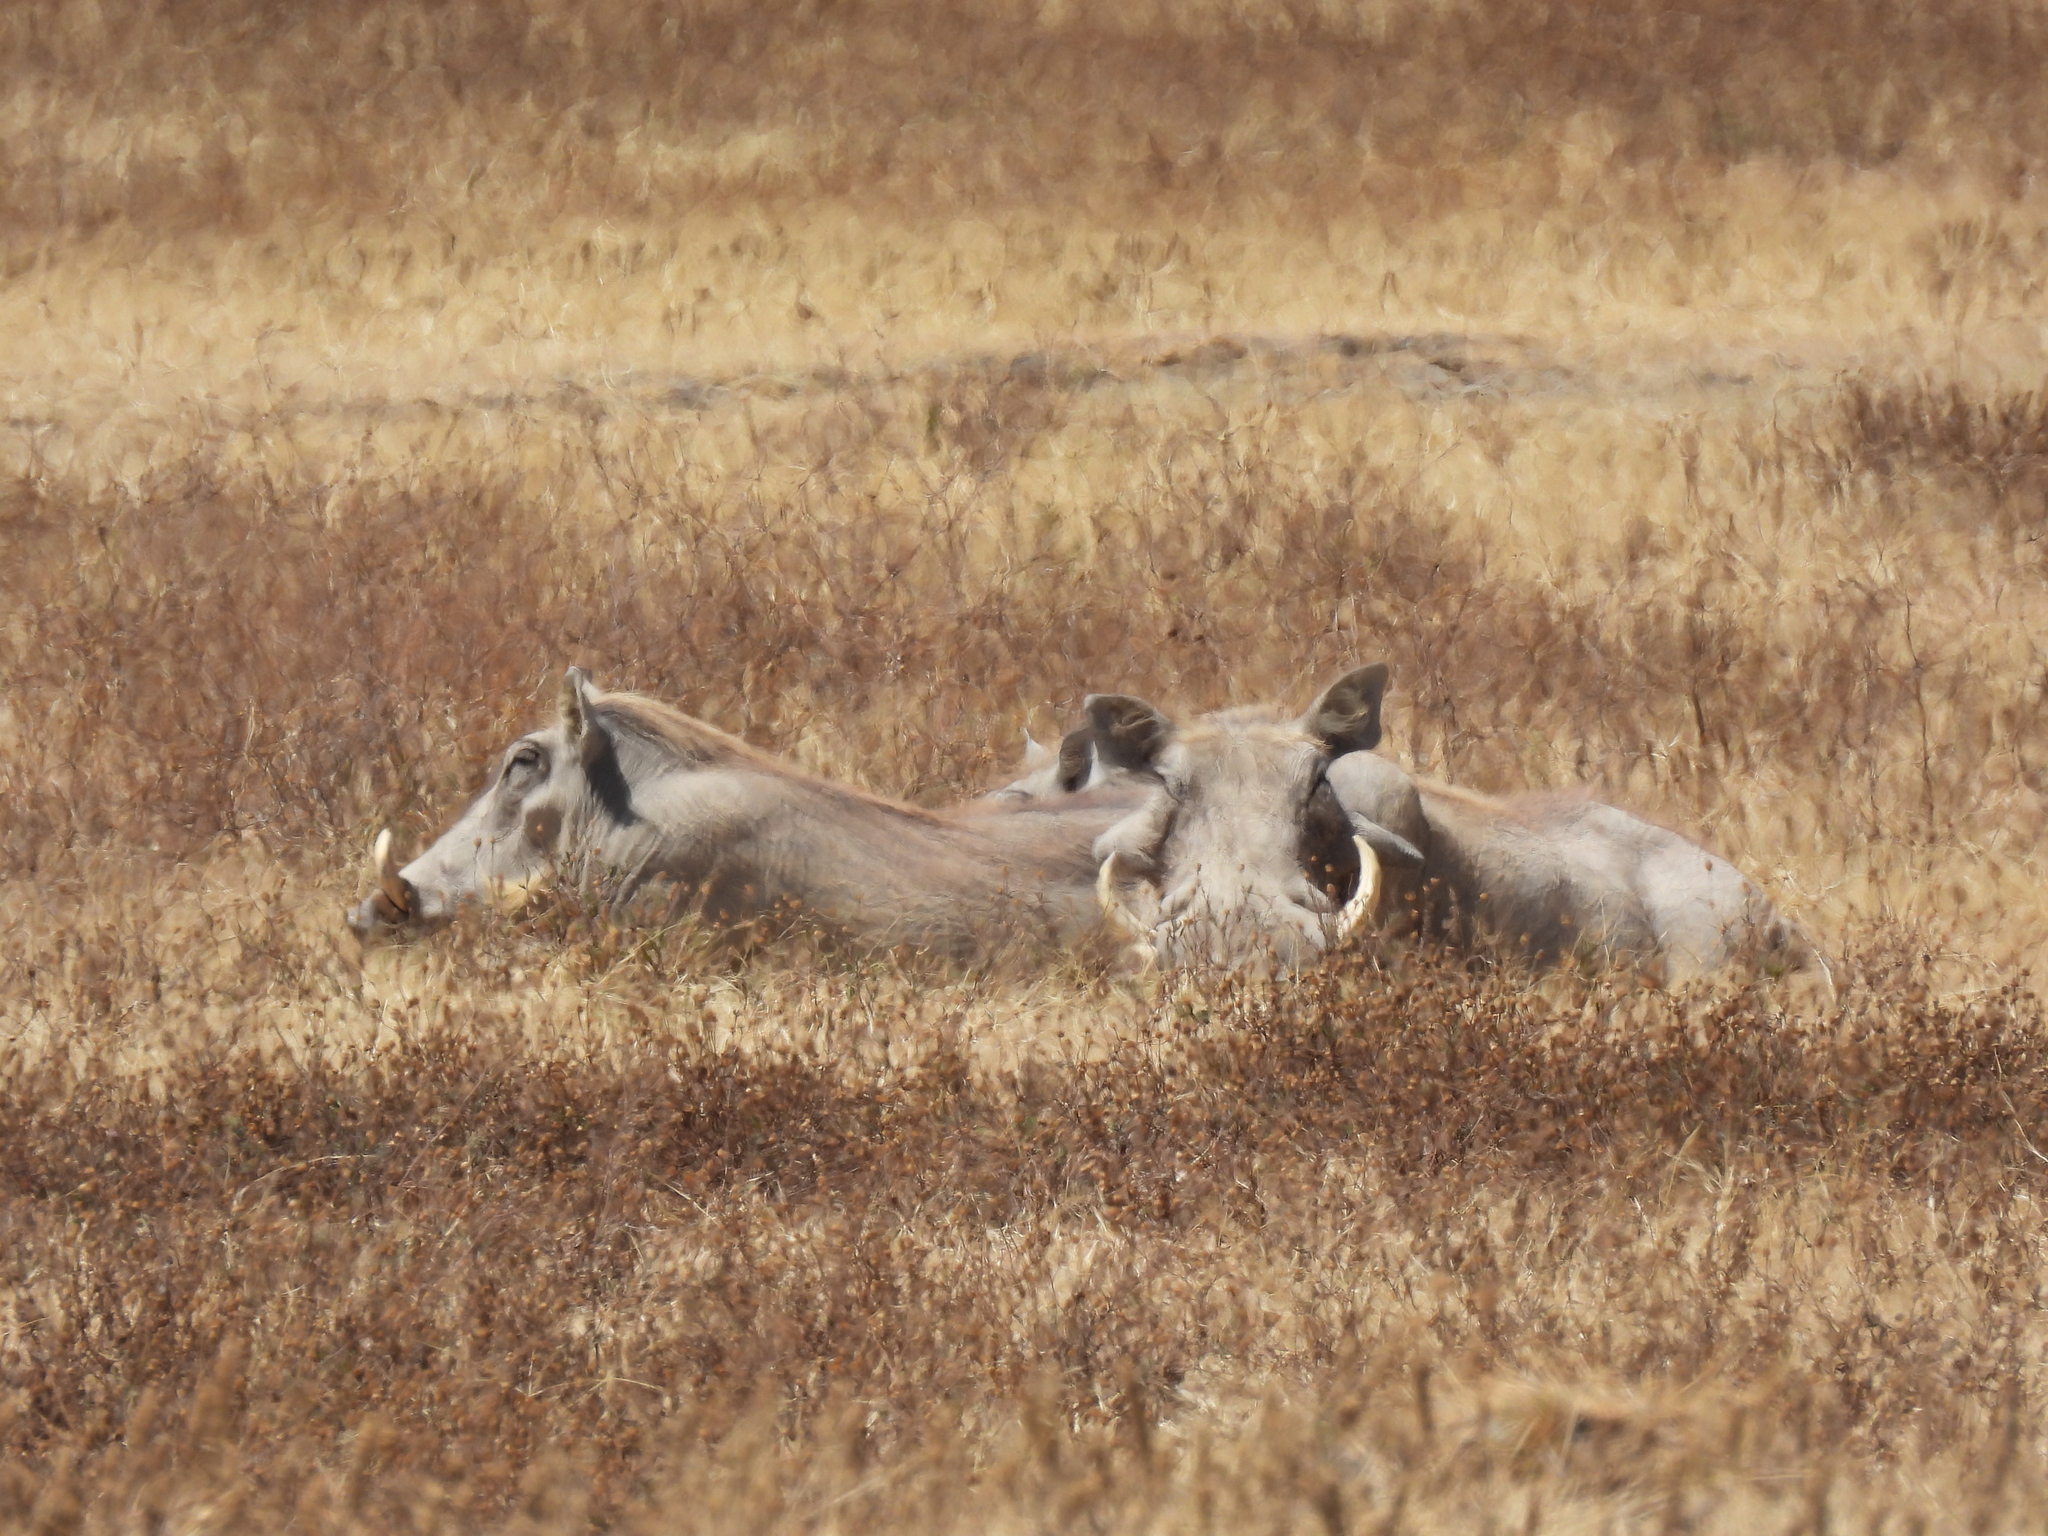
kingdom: Animalia
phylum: Chordata
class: Mammalia
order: Artiodactyla
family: Suidae
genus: Phacochoerus
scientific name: Phacochoerus africanus
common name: Common warthog
